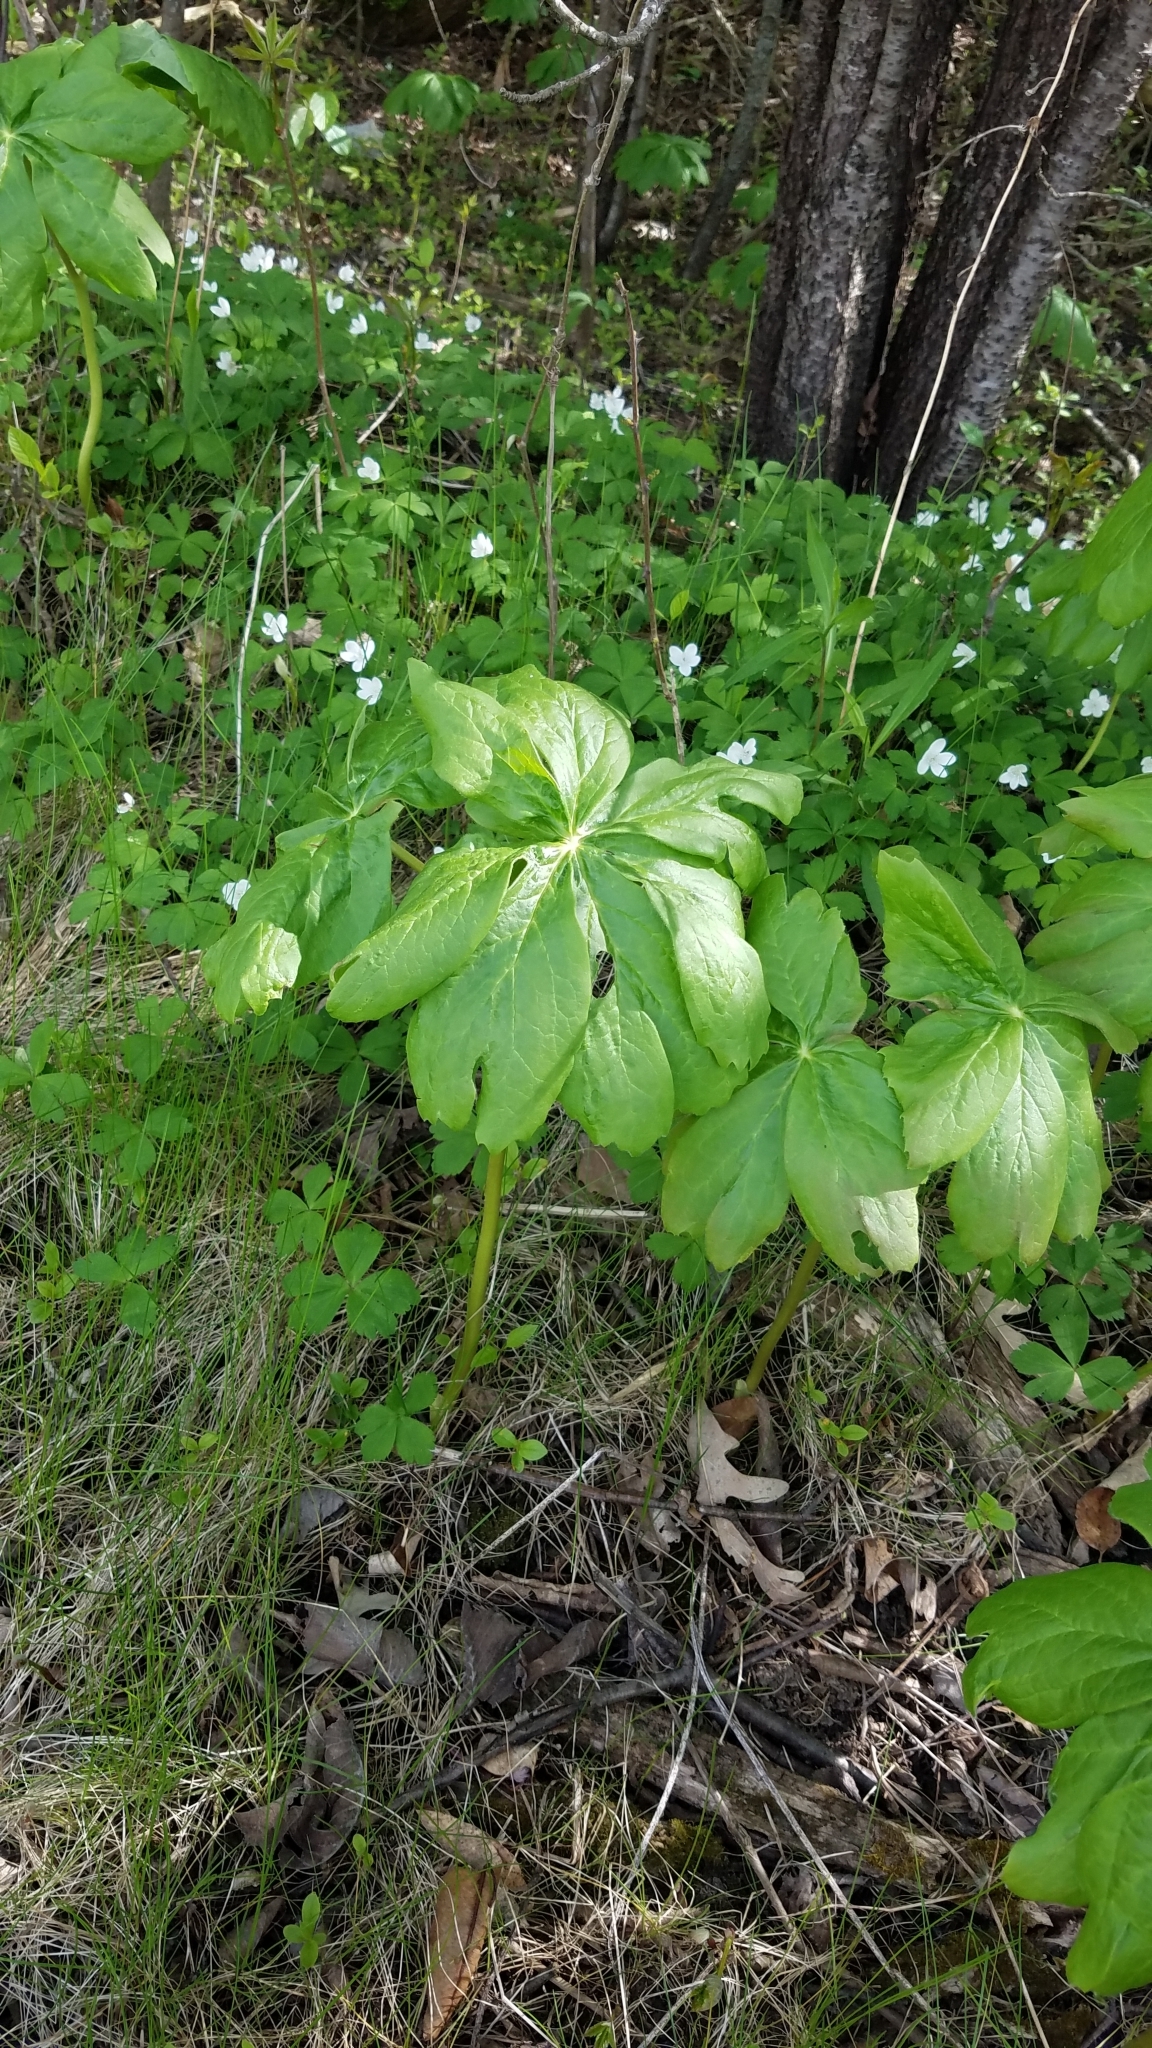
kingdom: Plantae
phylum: Tracheophyta
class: Magnoliopsida
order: Ranunculales
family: Berberidaceae
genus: Podophyllum
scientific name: Podophyllum peltatum
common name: Wild mandrake
